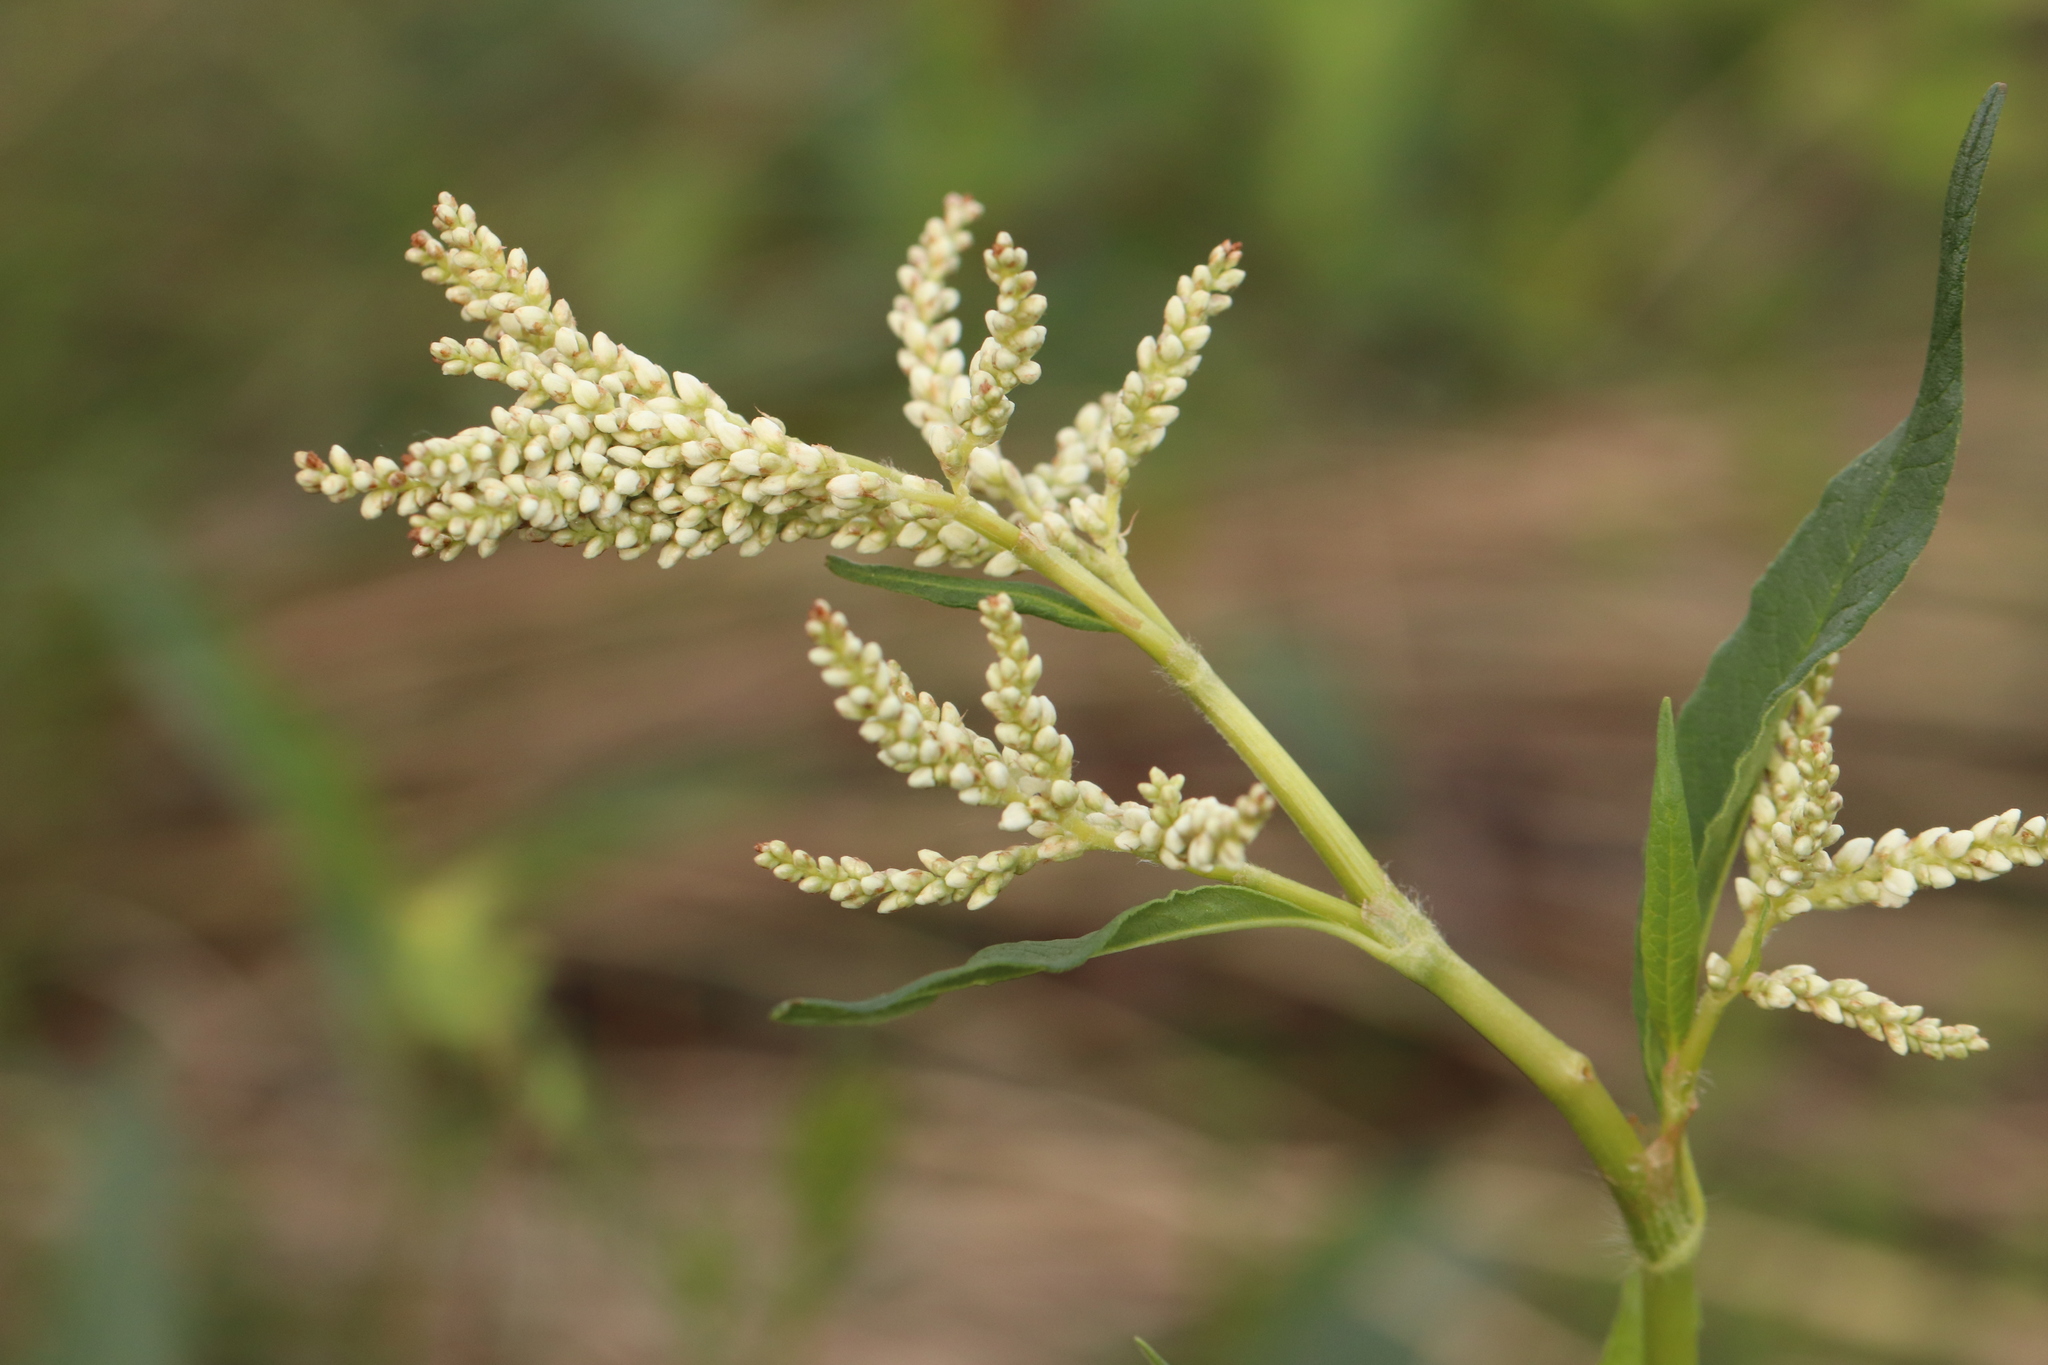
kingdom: Plantae
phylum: Tracheophyta
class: Magnoliopsida
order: Caryophyllales
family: Polygonaceae
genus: Koenigia
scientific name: Koenigia alpina
